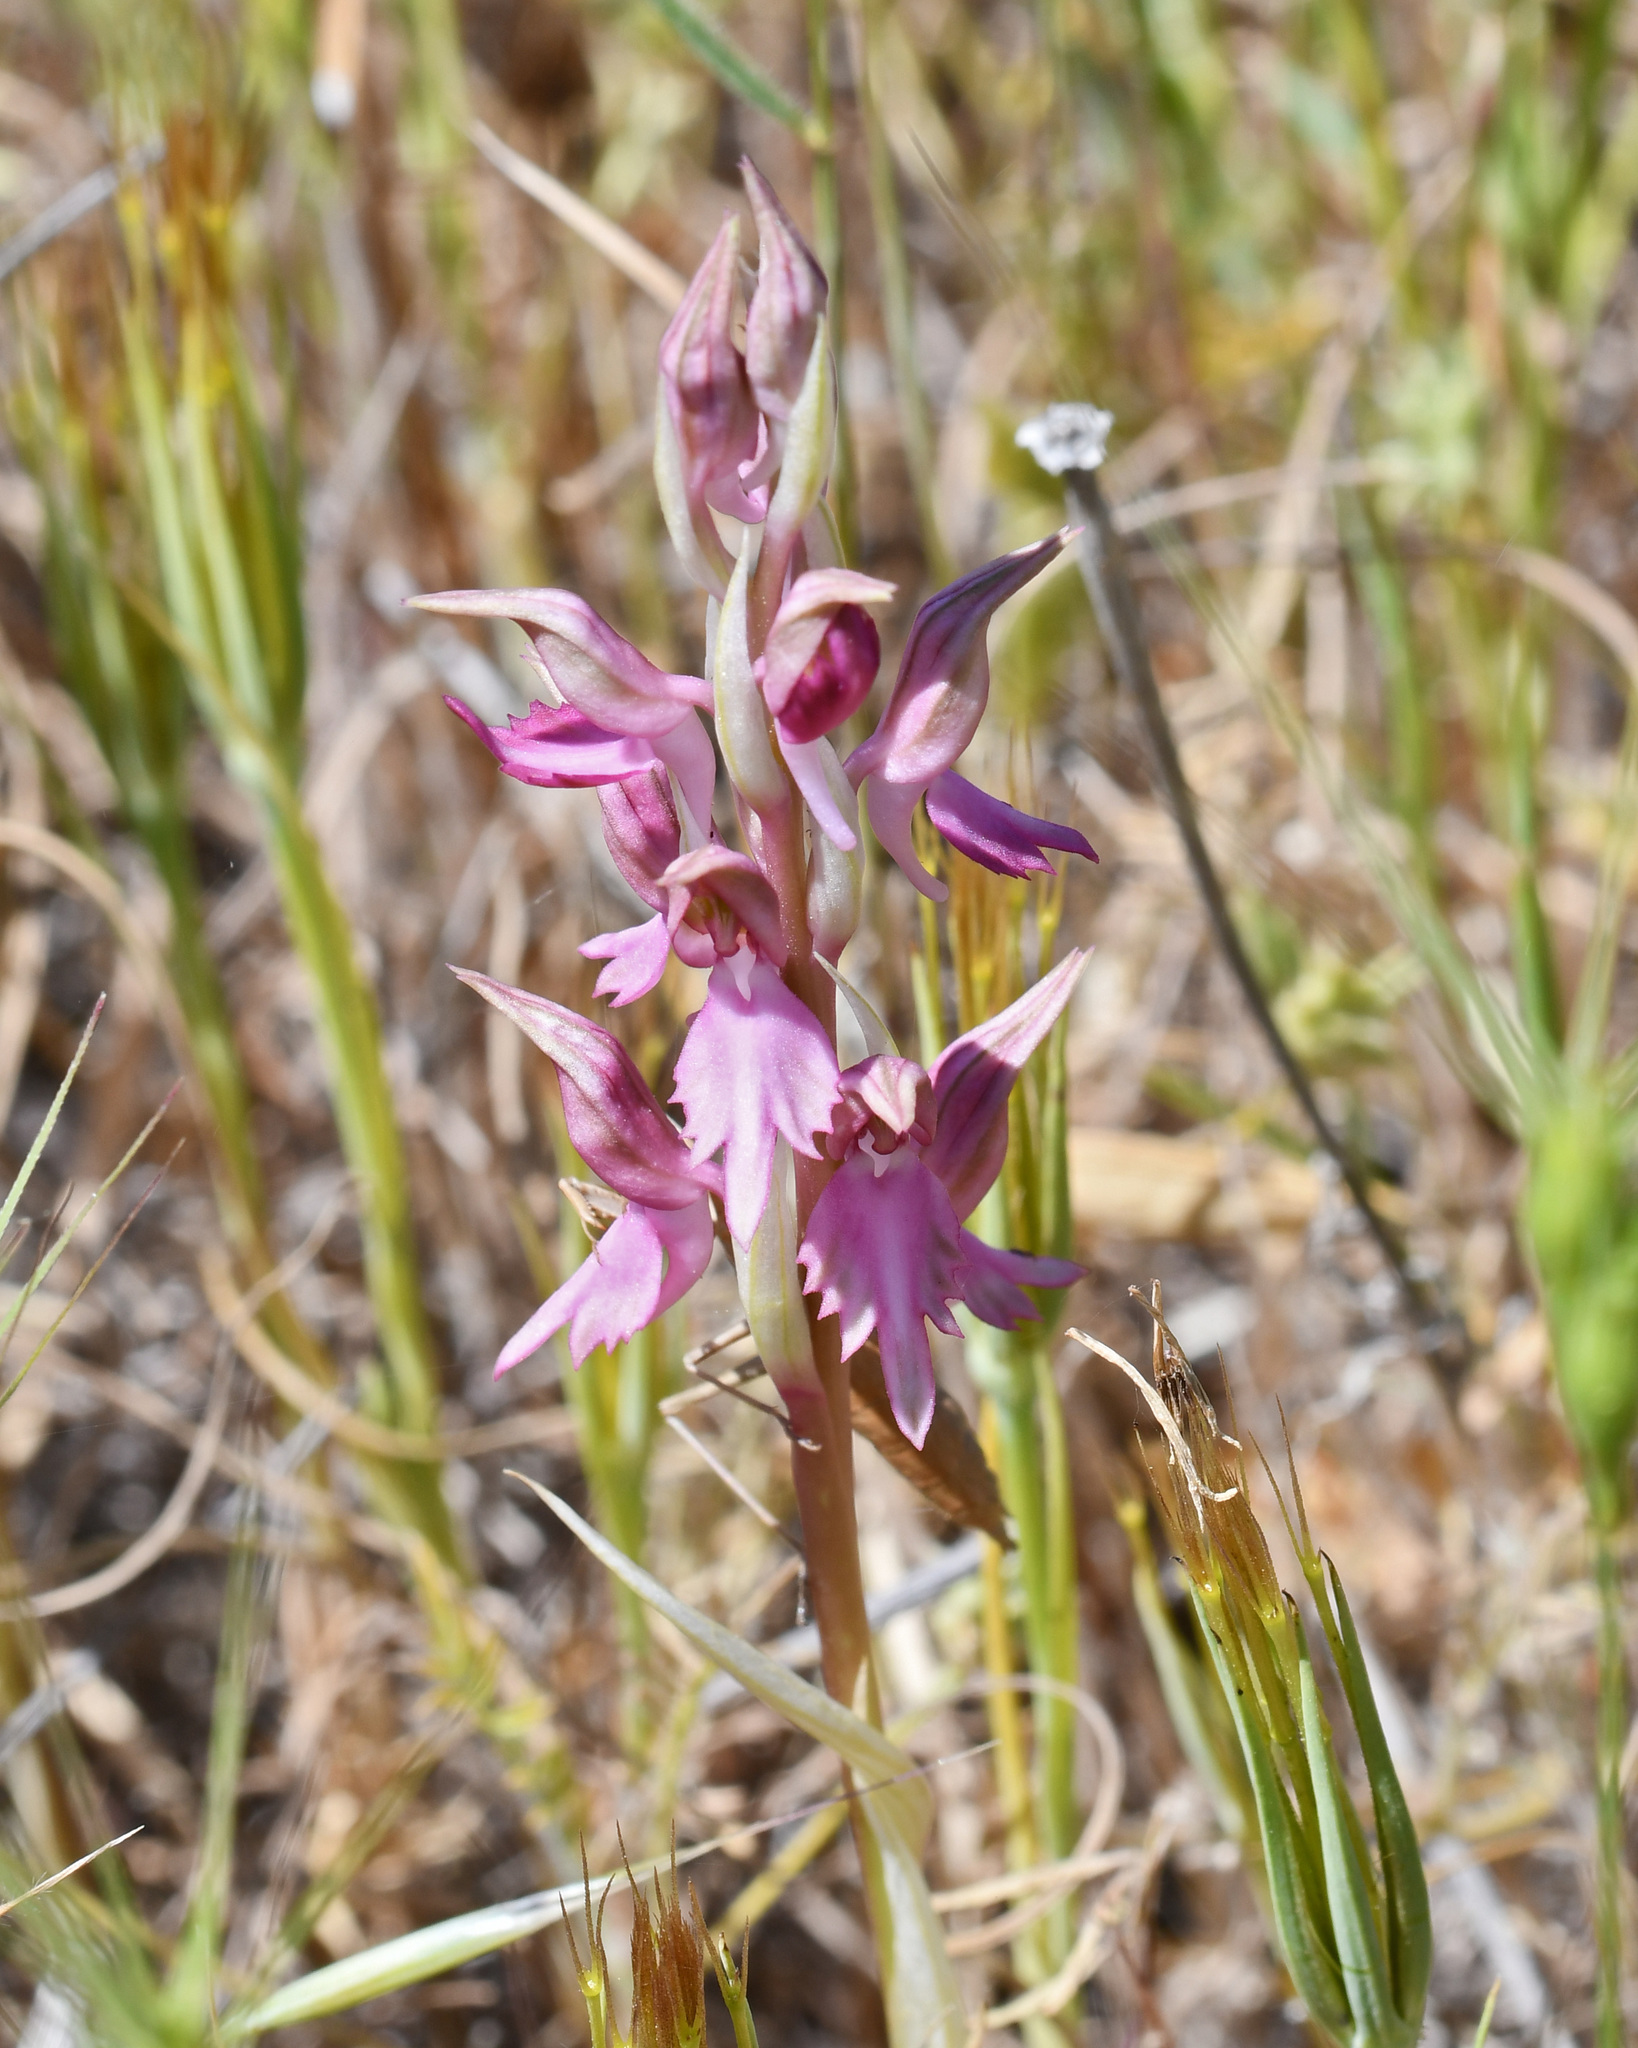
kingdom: Plantae
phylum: Tracheophyta
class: Liliopsida
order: Asparagales
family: Orchidaceae
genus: Anacamptis
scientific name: Anacamptis sancta
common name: Holy orchid
